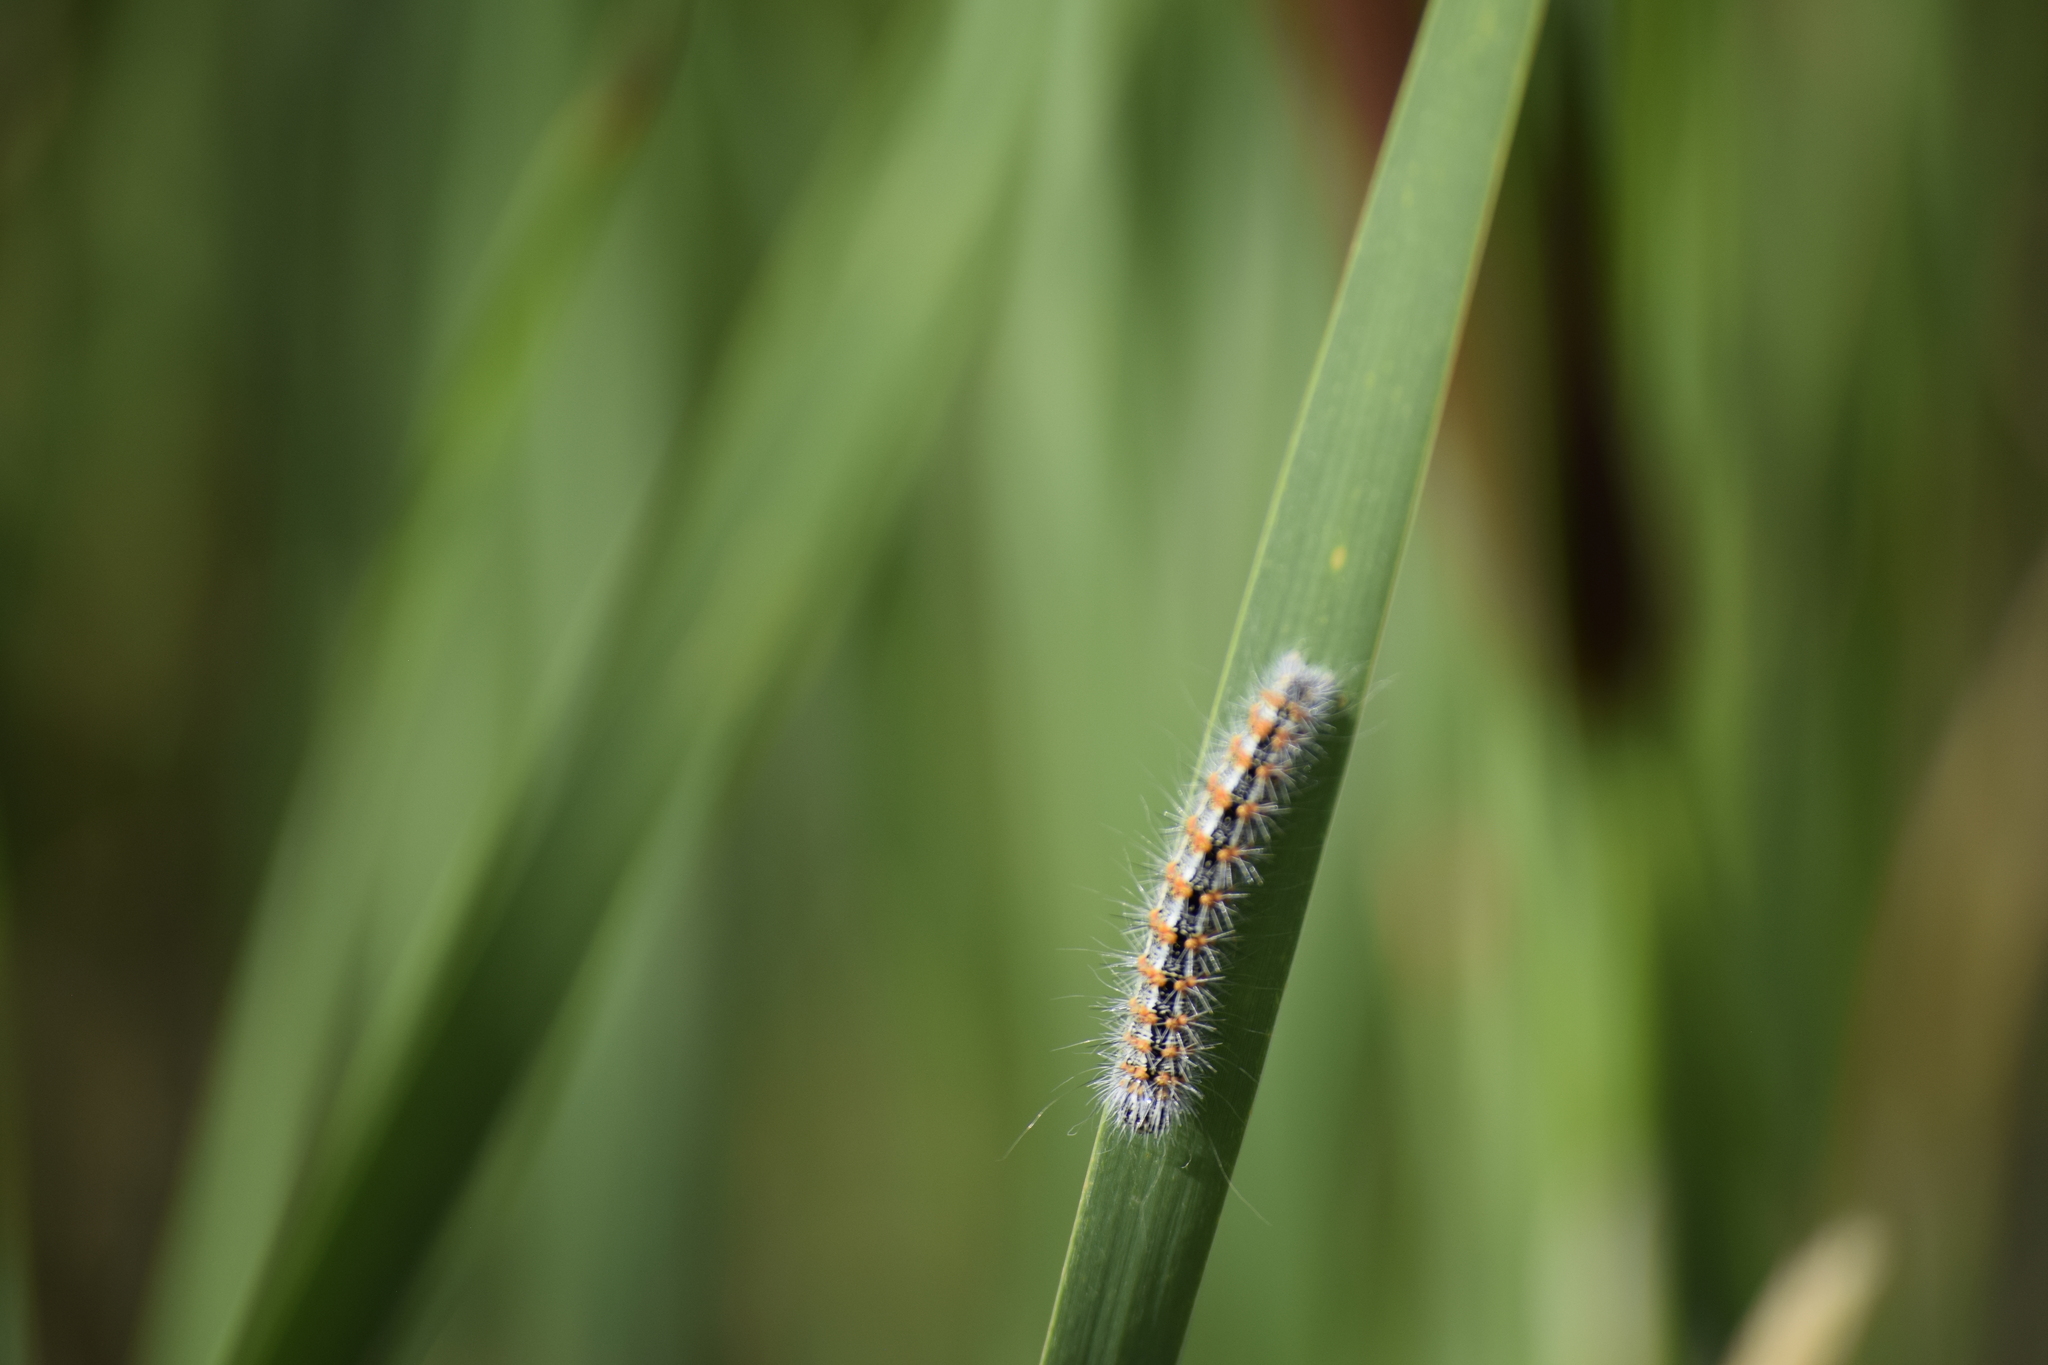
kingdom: Animalia
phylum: Arthropoda
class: Insecta
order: Lepidoptera
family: Noctuidae
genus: Acronicta
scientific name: Acronicta insularis
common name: Henry's marsh moth
